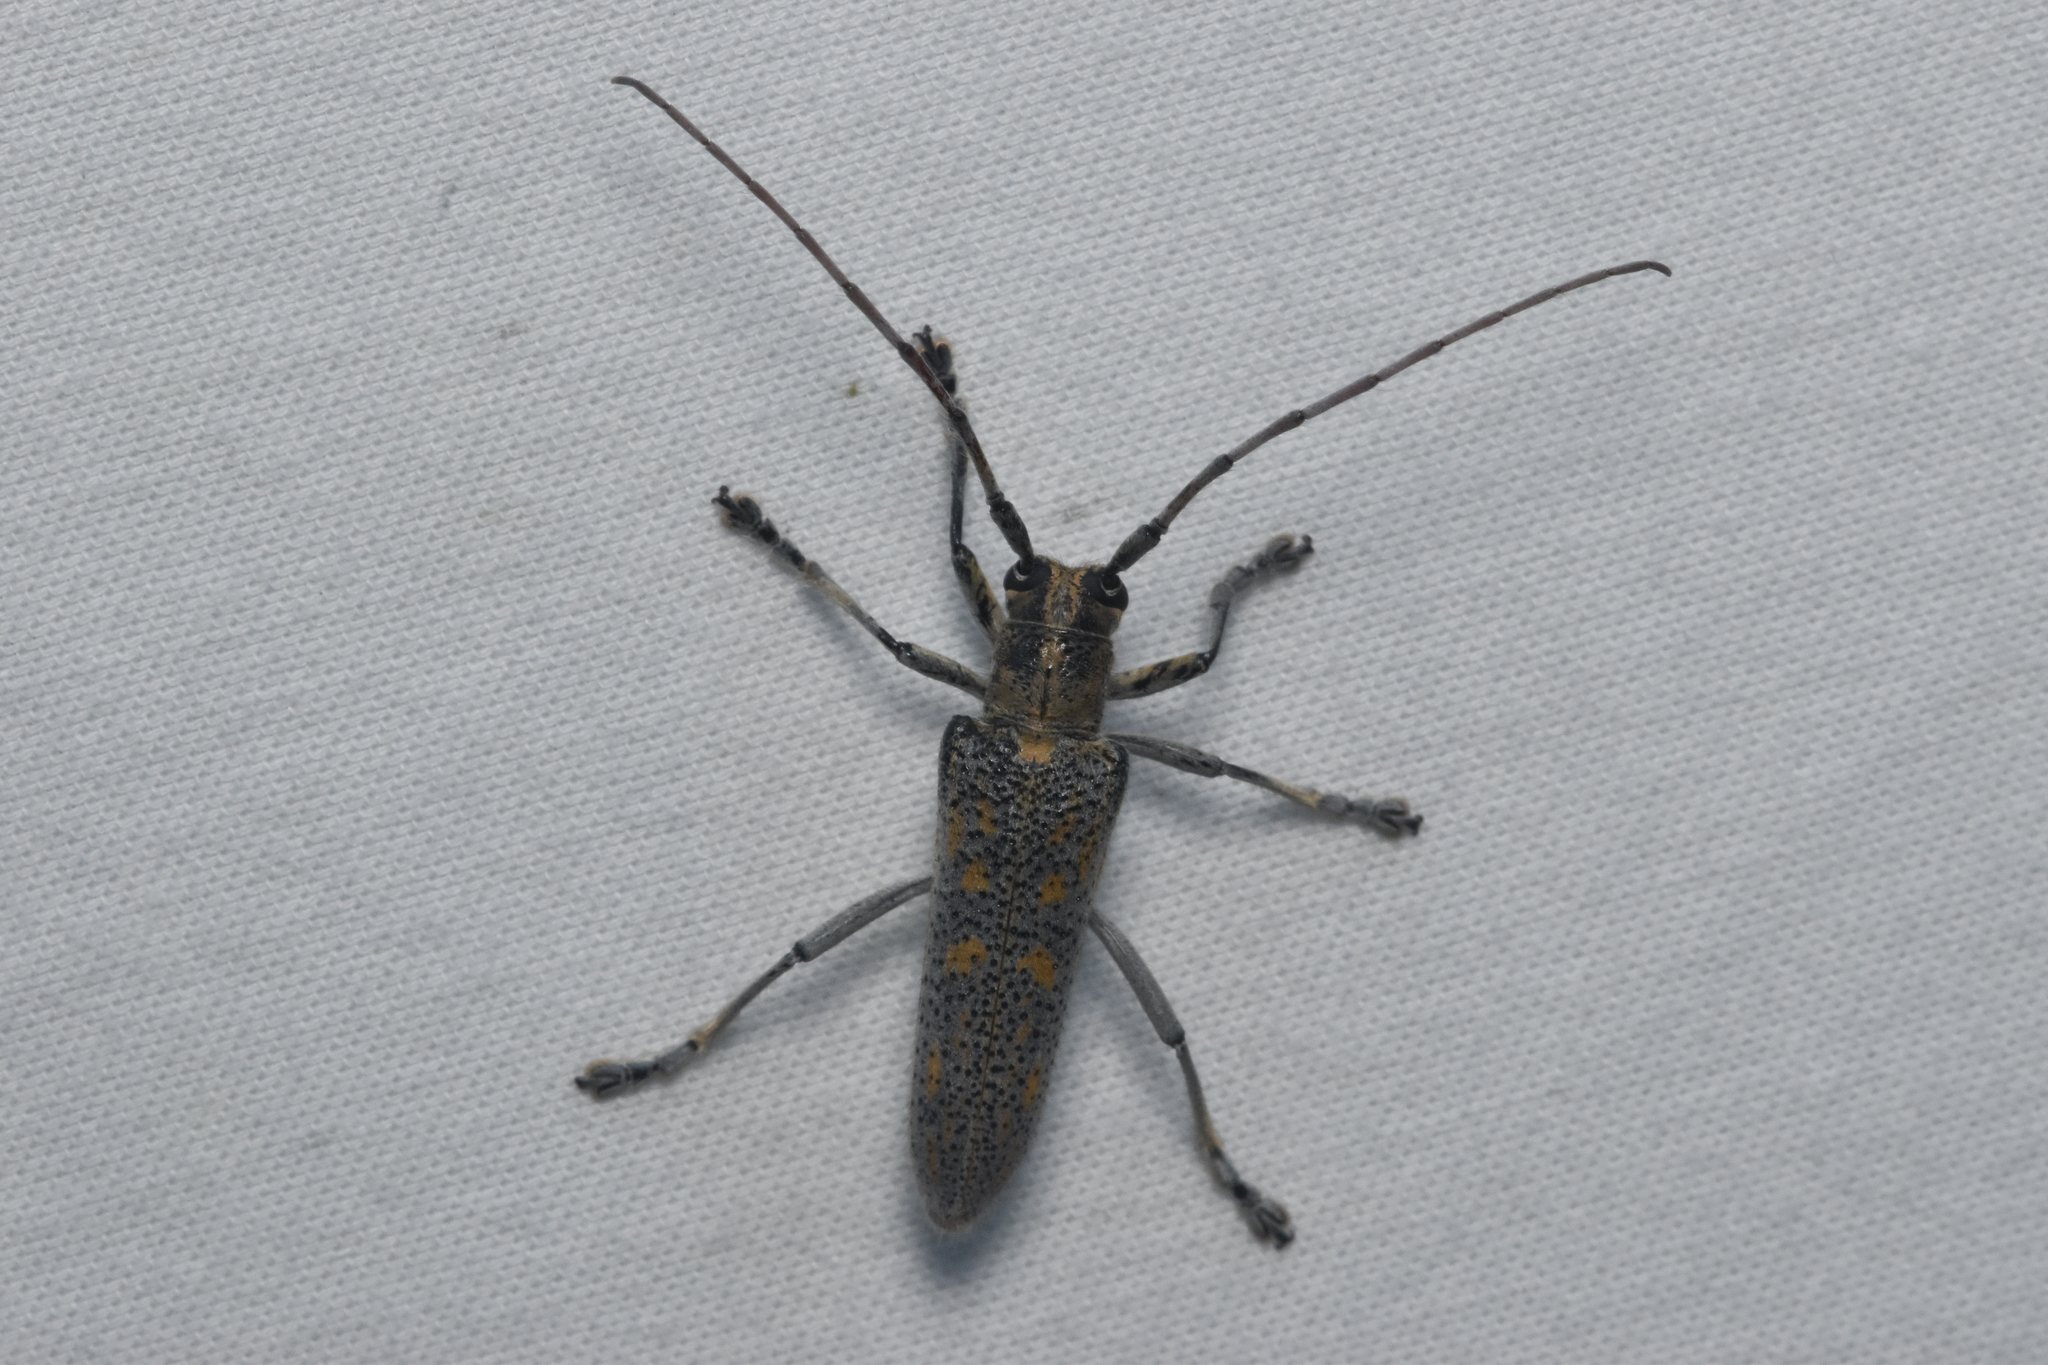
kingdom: Animalia
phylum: Arthropoda
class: Insecta
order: Coleoptera
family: Cerambycidae
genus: Saperda
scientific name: Saperda calcarata
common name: Poplar borer
